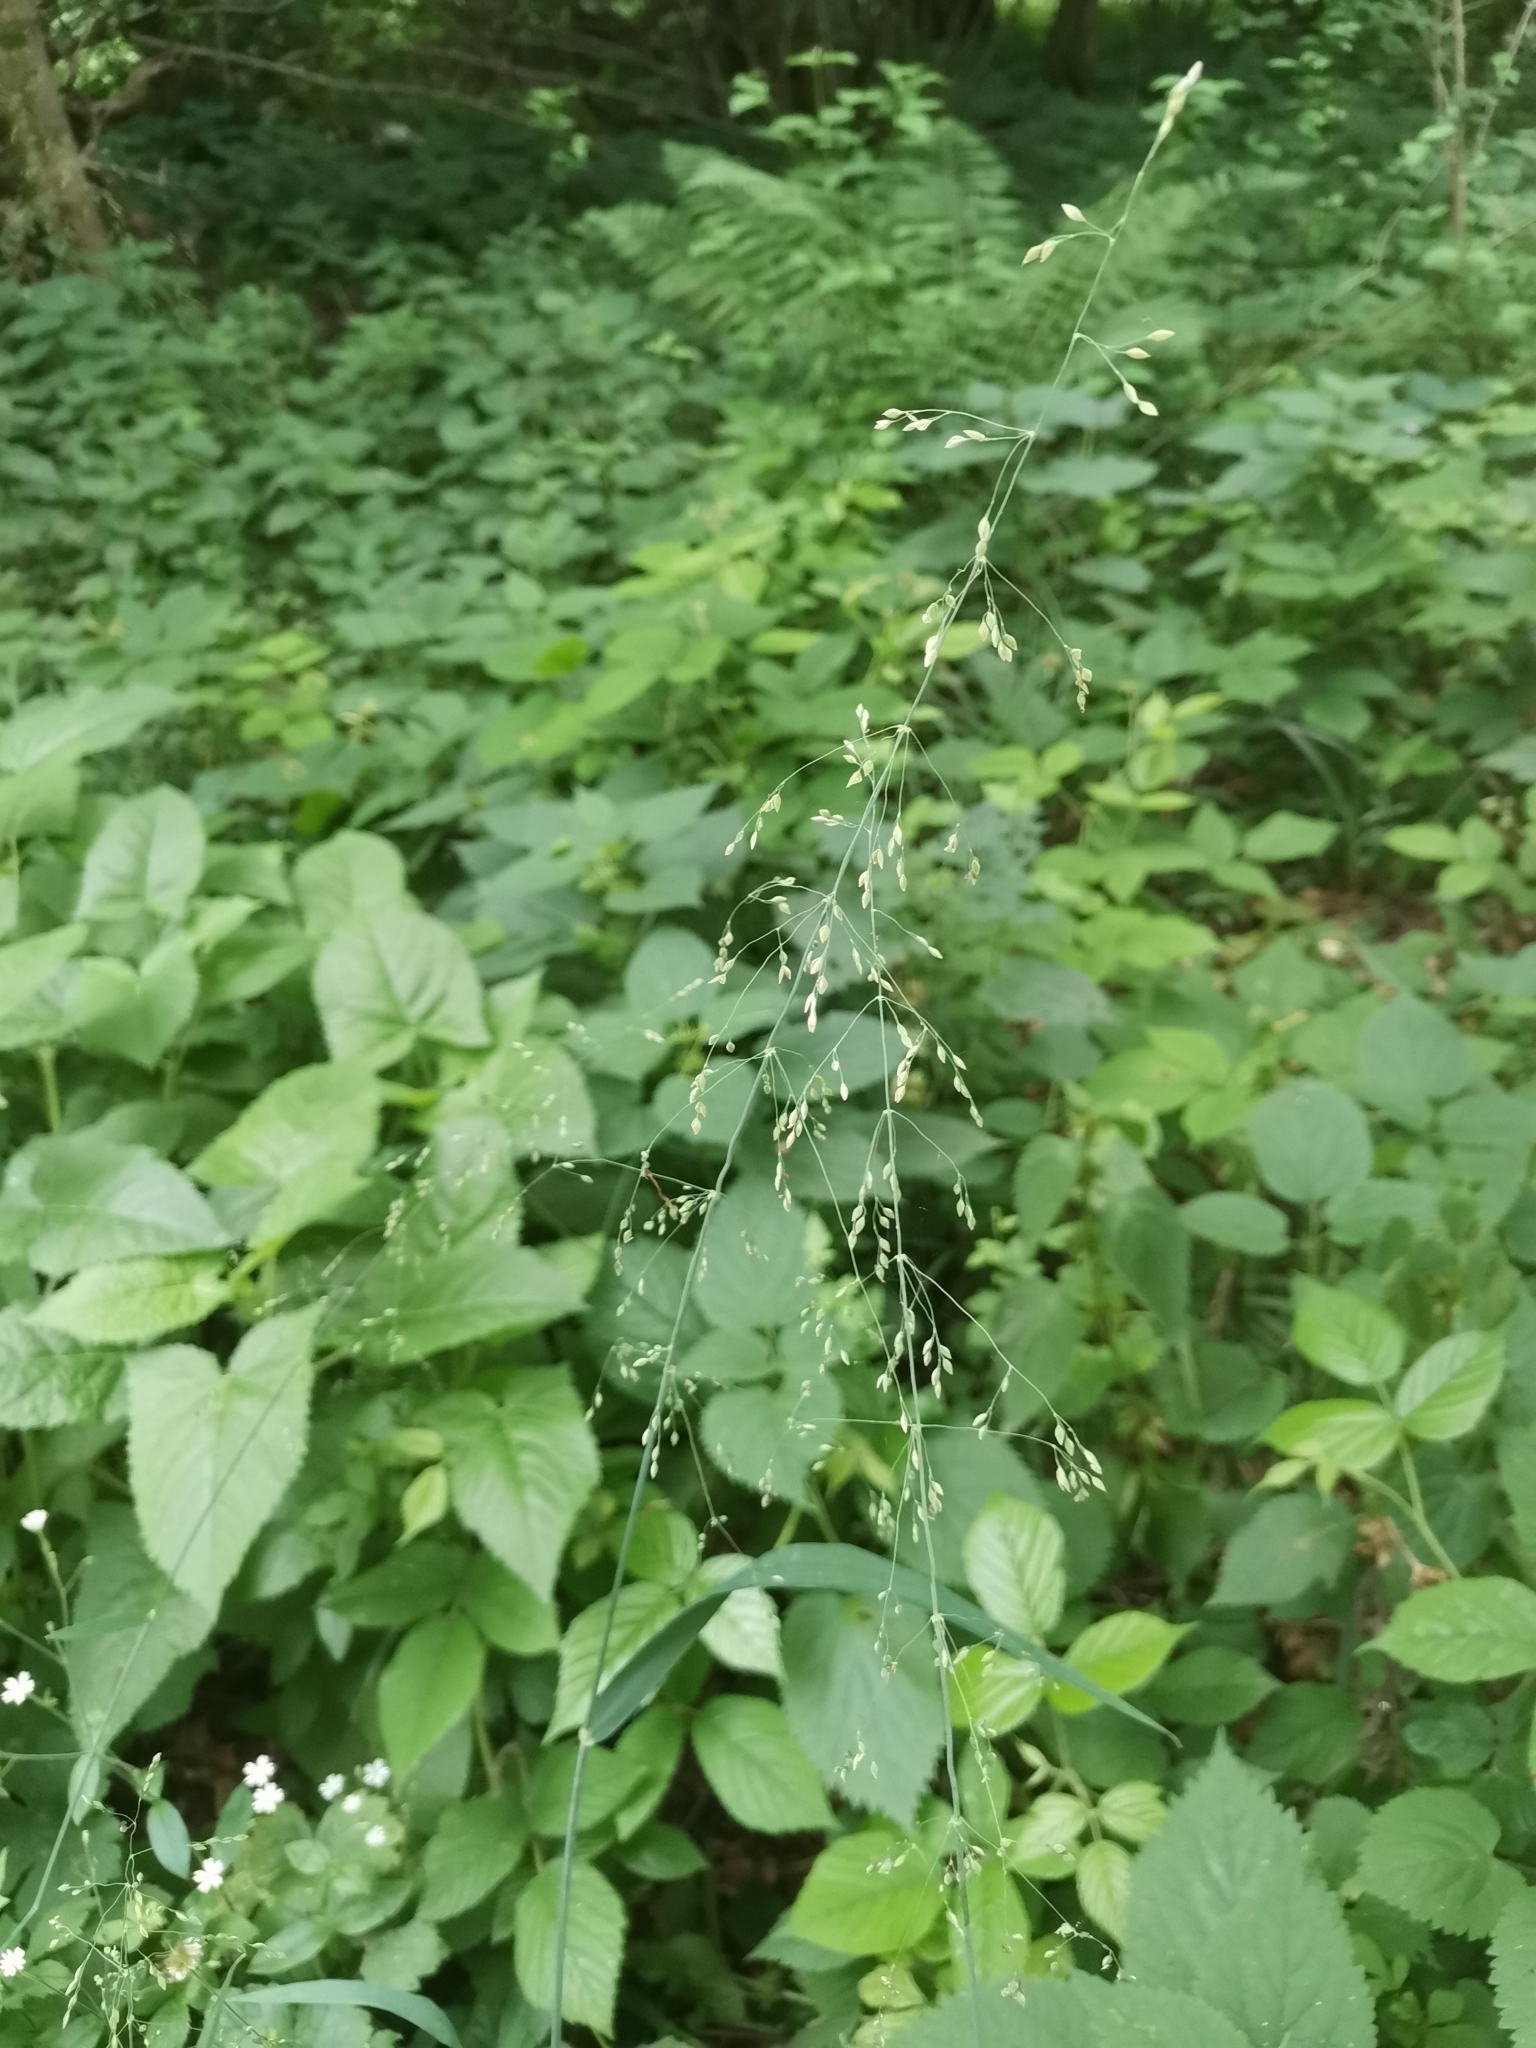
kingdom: Plantae
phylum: Tracheophyta
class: Liliopsida
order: Poales
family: Poaceae
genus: Milium
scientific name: Milium effusum
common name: Wood millet
